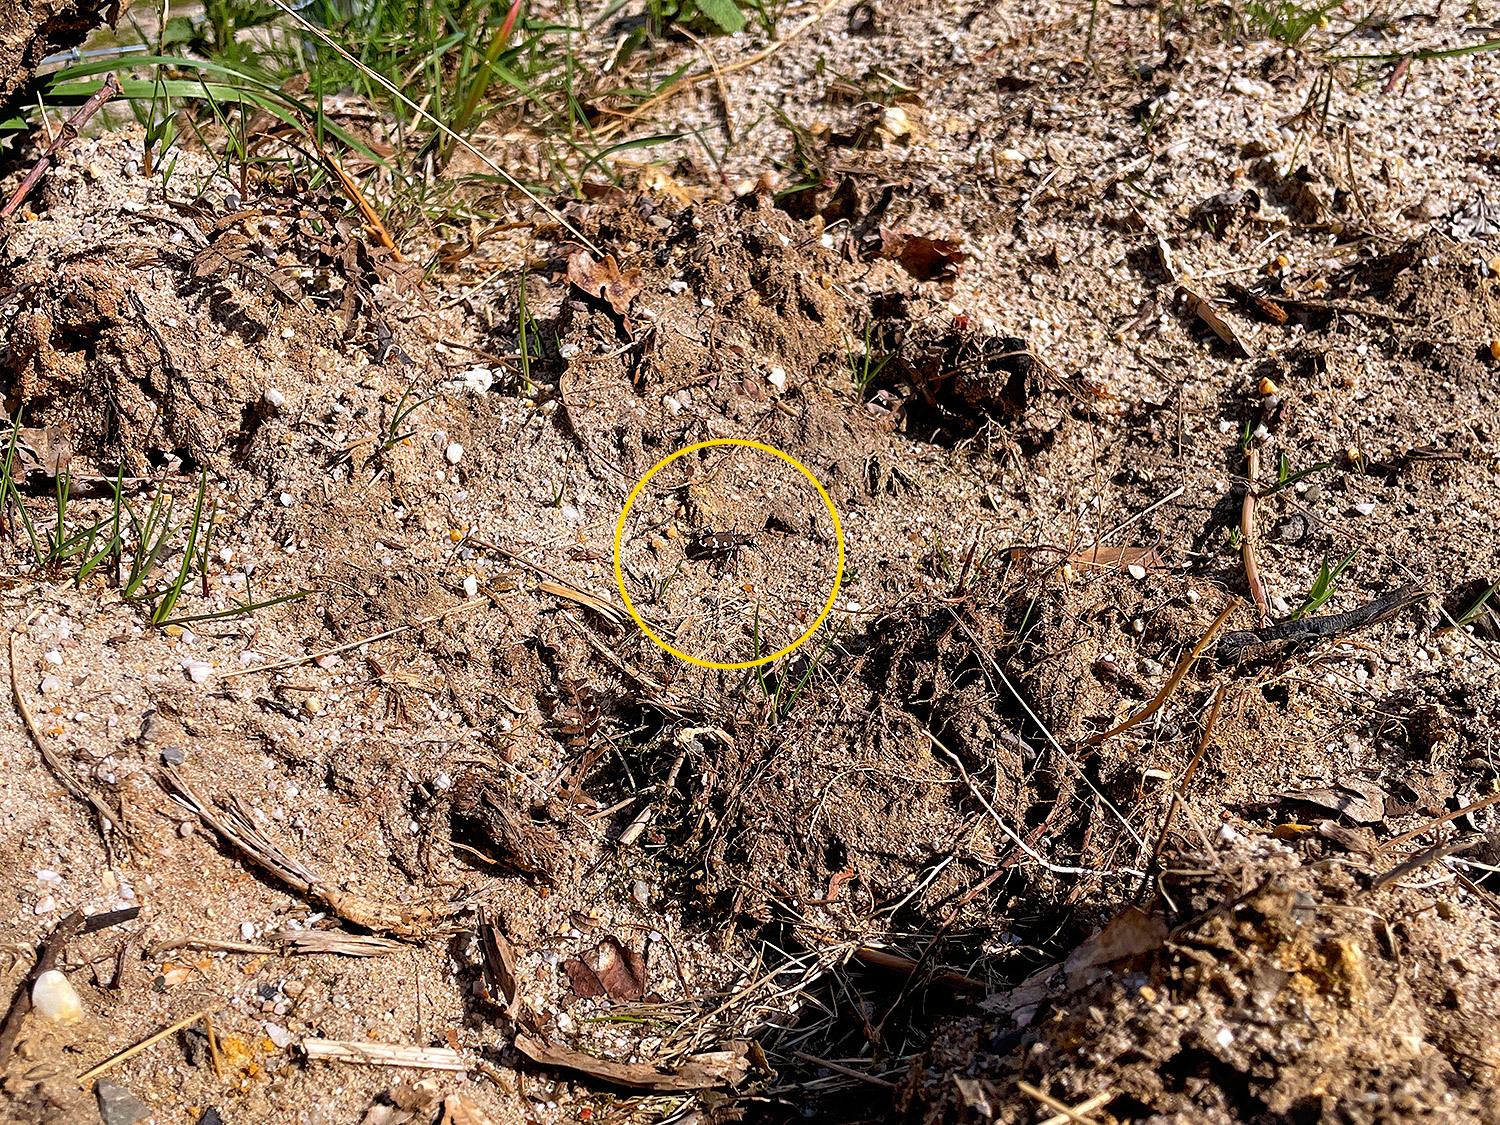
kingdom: Animalia
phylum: Arthropoda
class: Insecta
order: Coleoptera
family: Carabidae
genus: Cicindela
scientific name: Cicindela hybrida
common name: Northern dune tiger beetle
